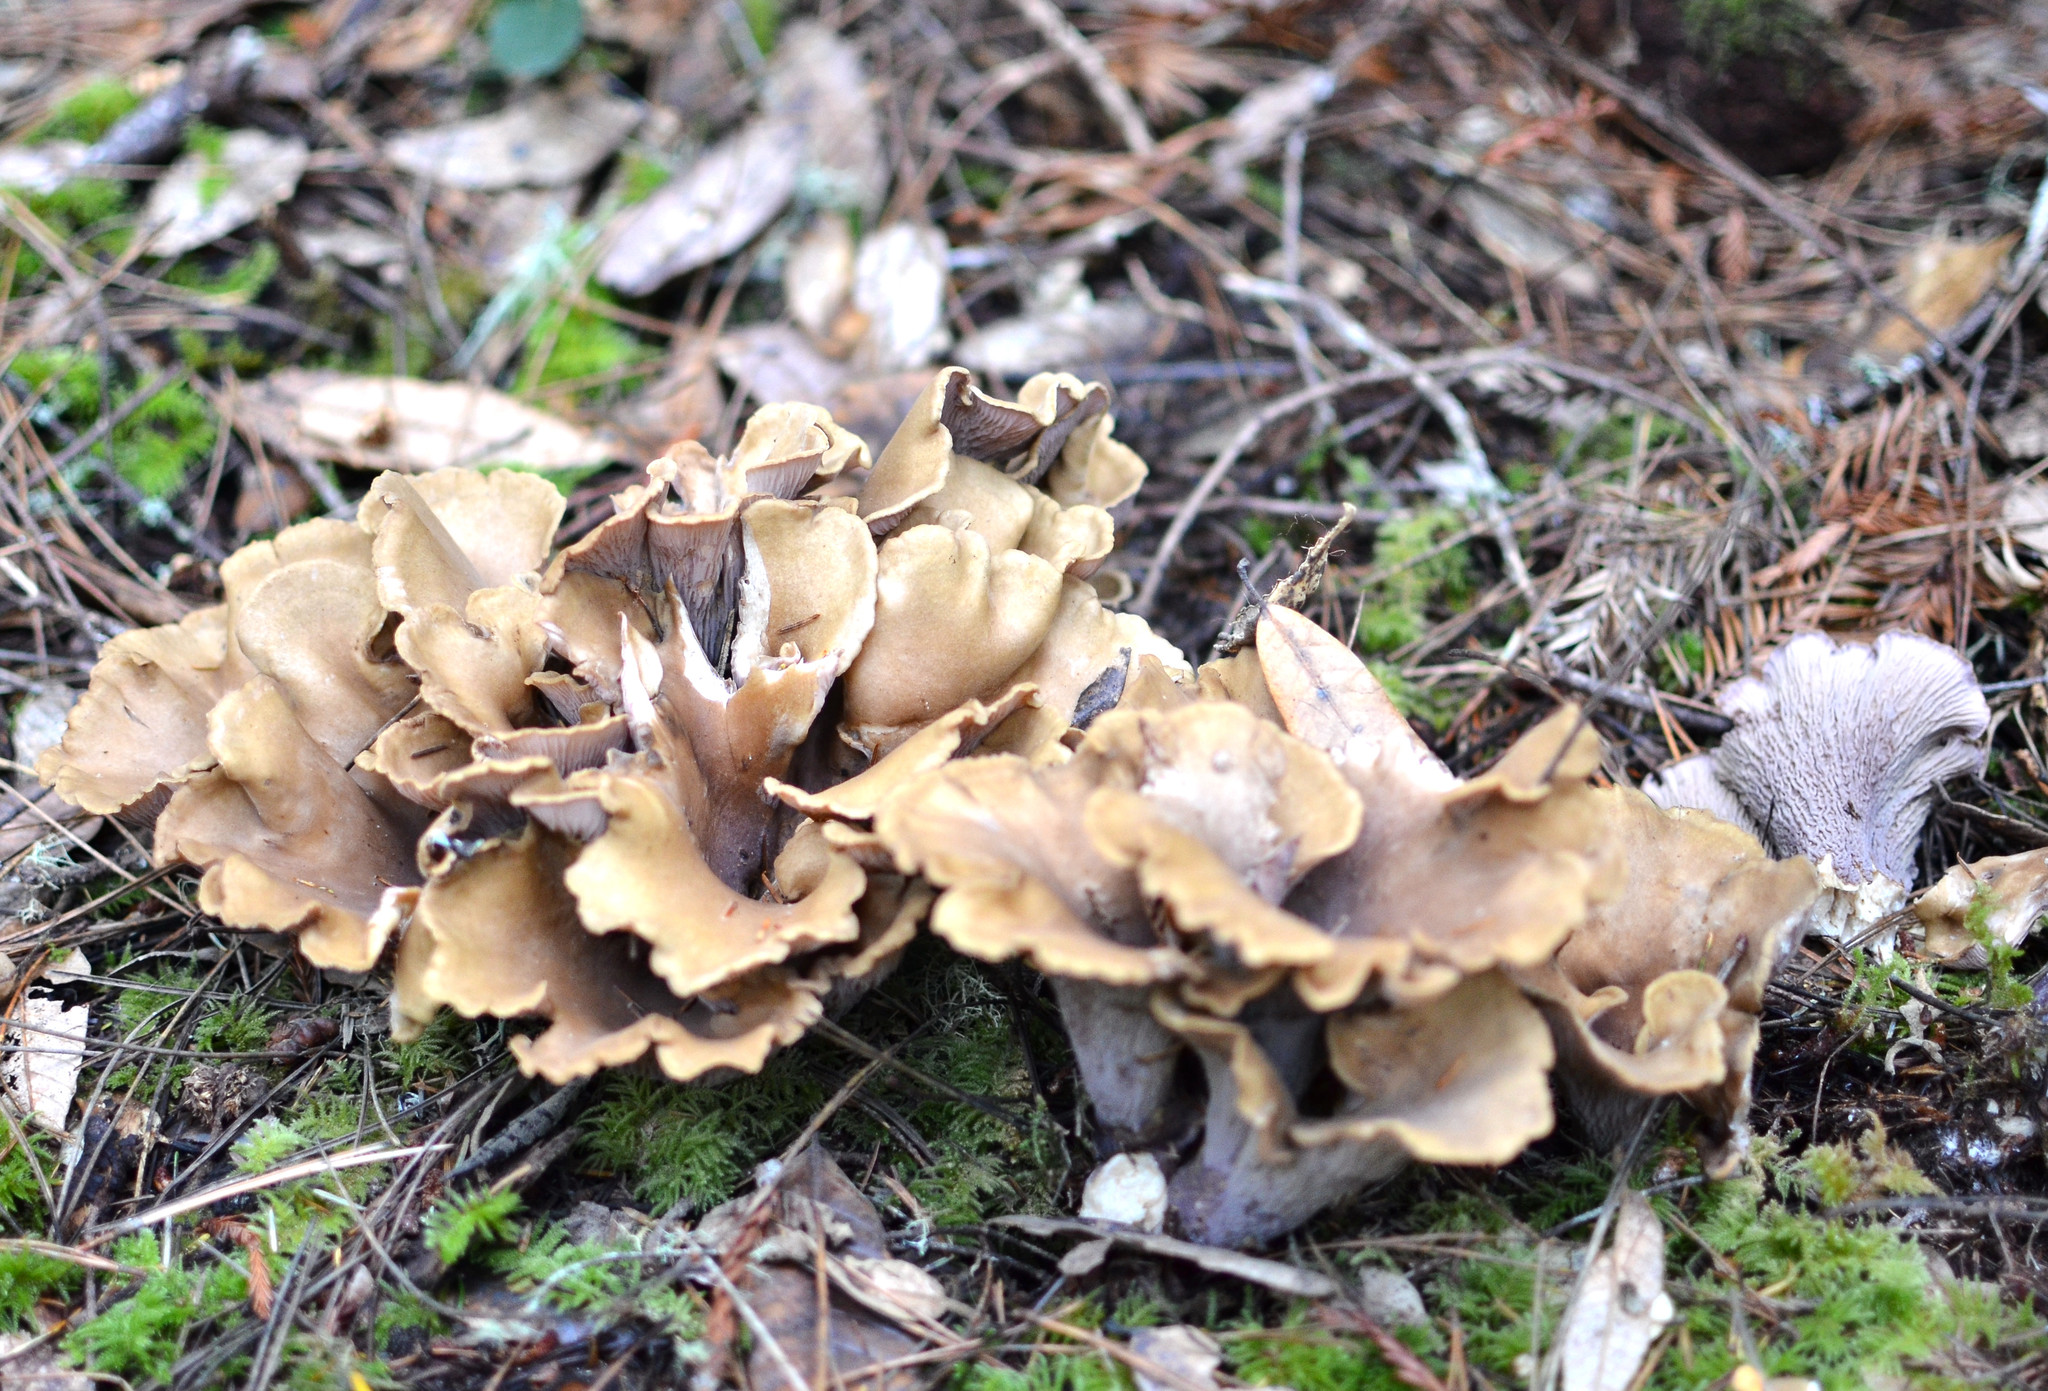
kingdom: Fungi
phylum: Basidiomycota
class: Agaricomycetes
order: Gomphales
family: Gomphaceae
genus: Gomphus
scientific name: Gomphus clavatus
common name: Pig's ear
